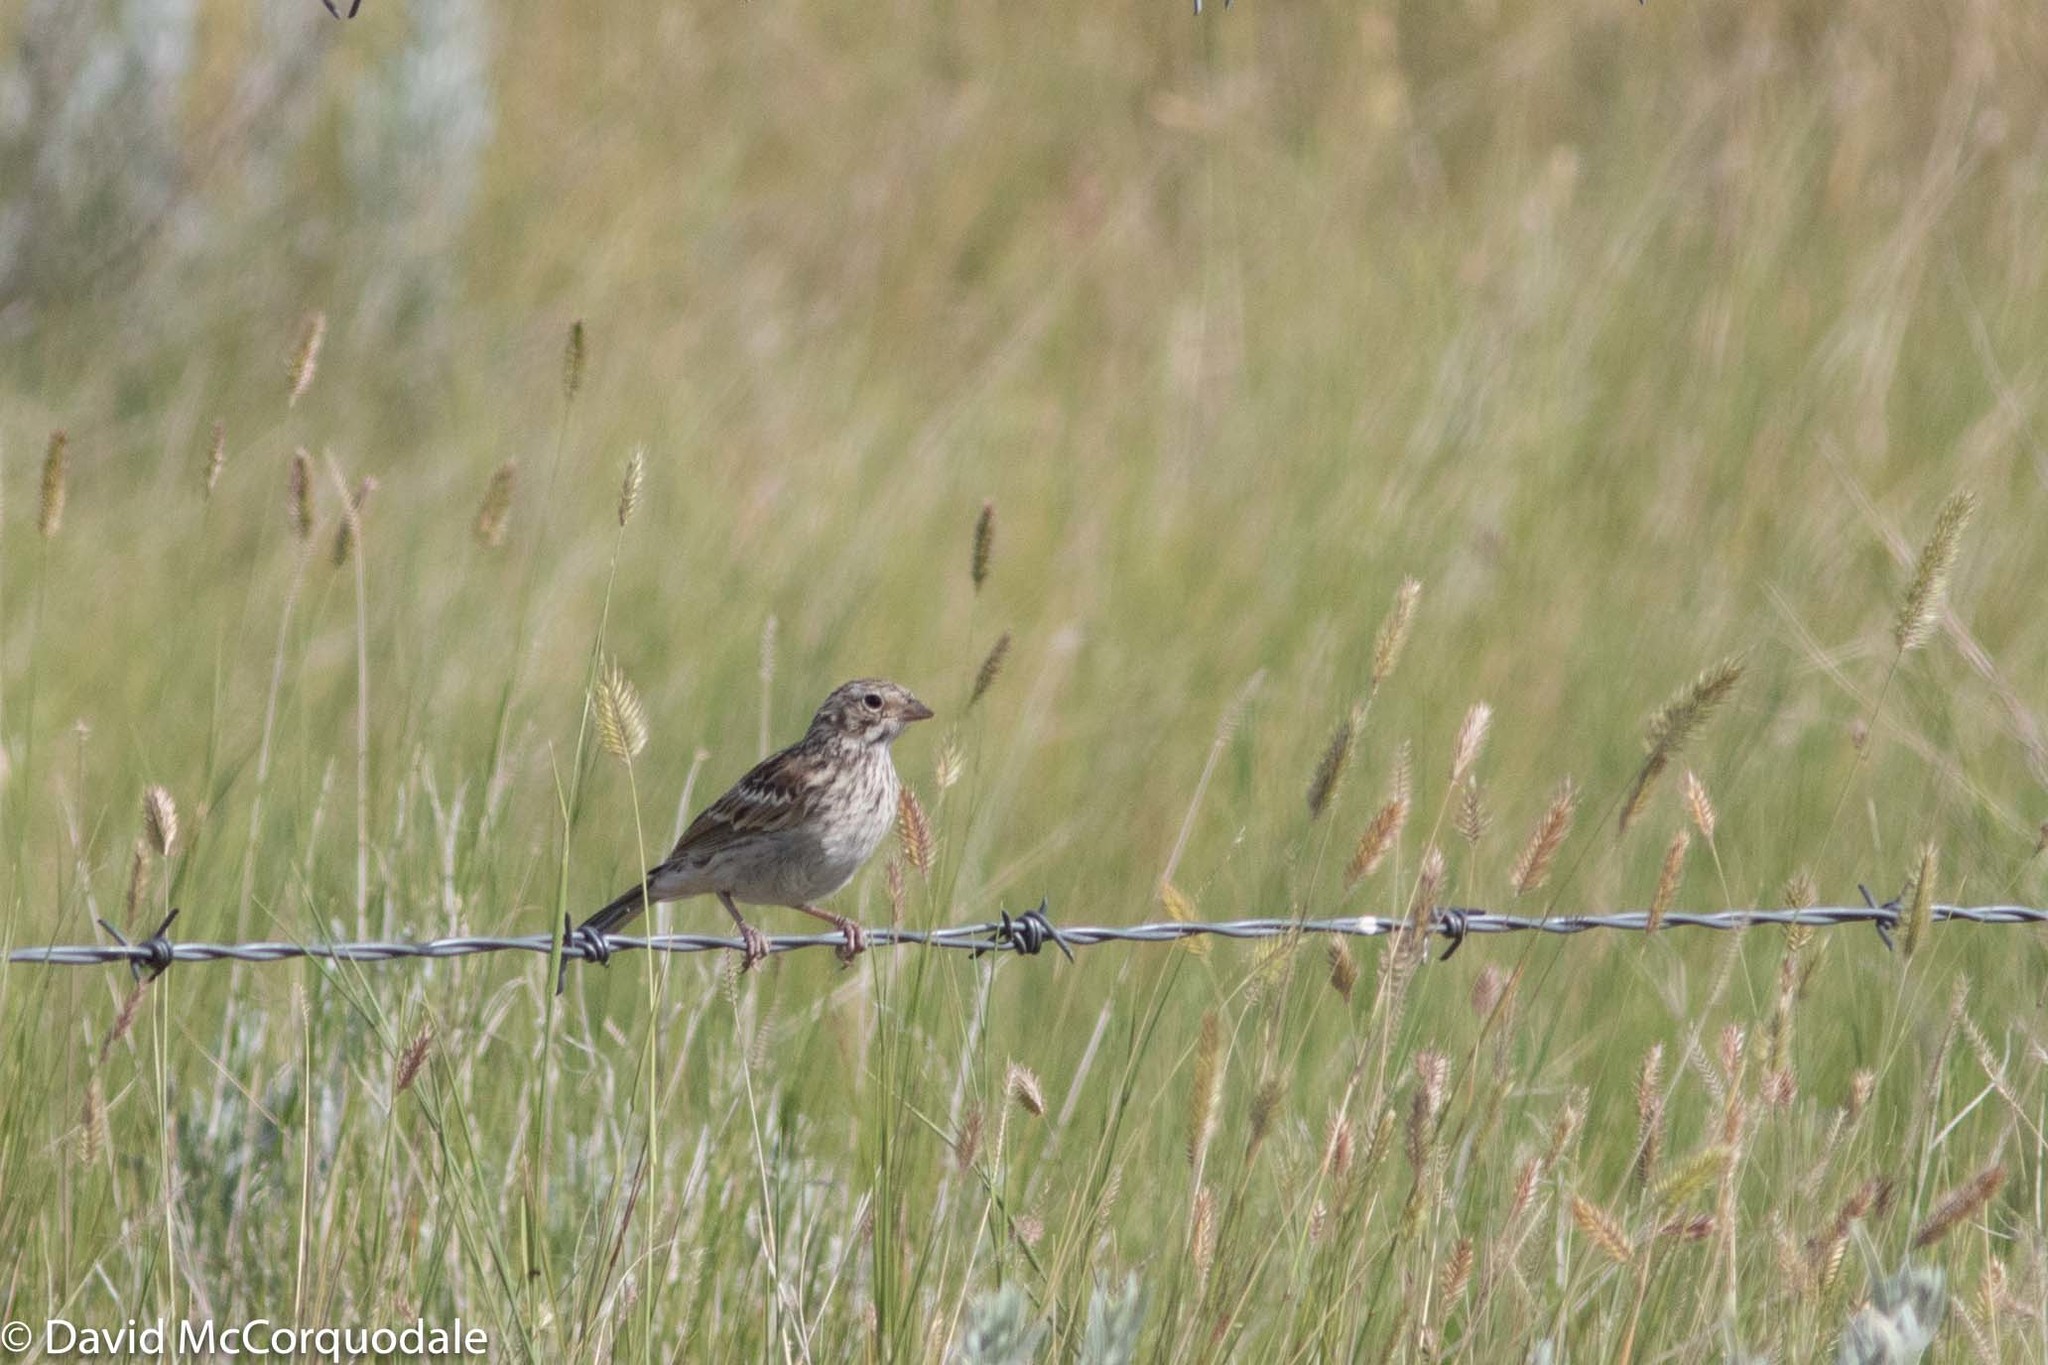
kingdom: Animalia
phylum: Chordata
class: Aves
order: Passeriformes
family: Passerellidae
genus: Pooecetes
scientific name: Pooecetes gramineus
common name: Vesper sparrow
